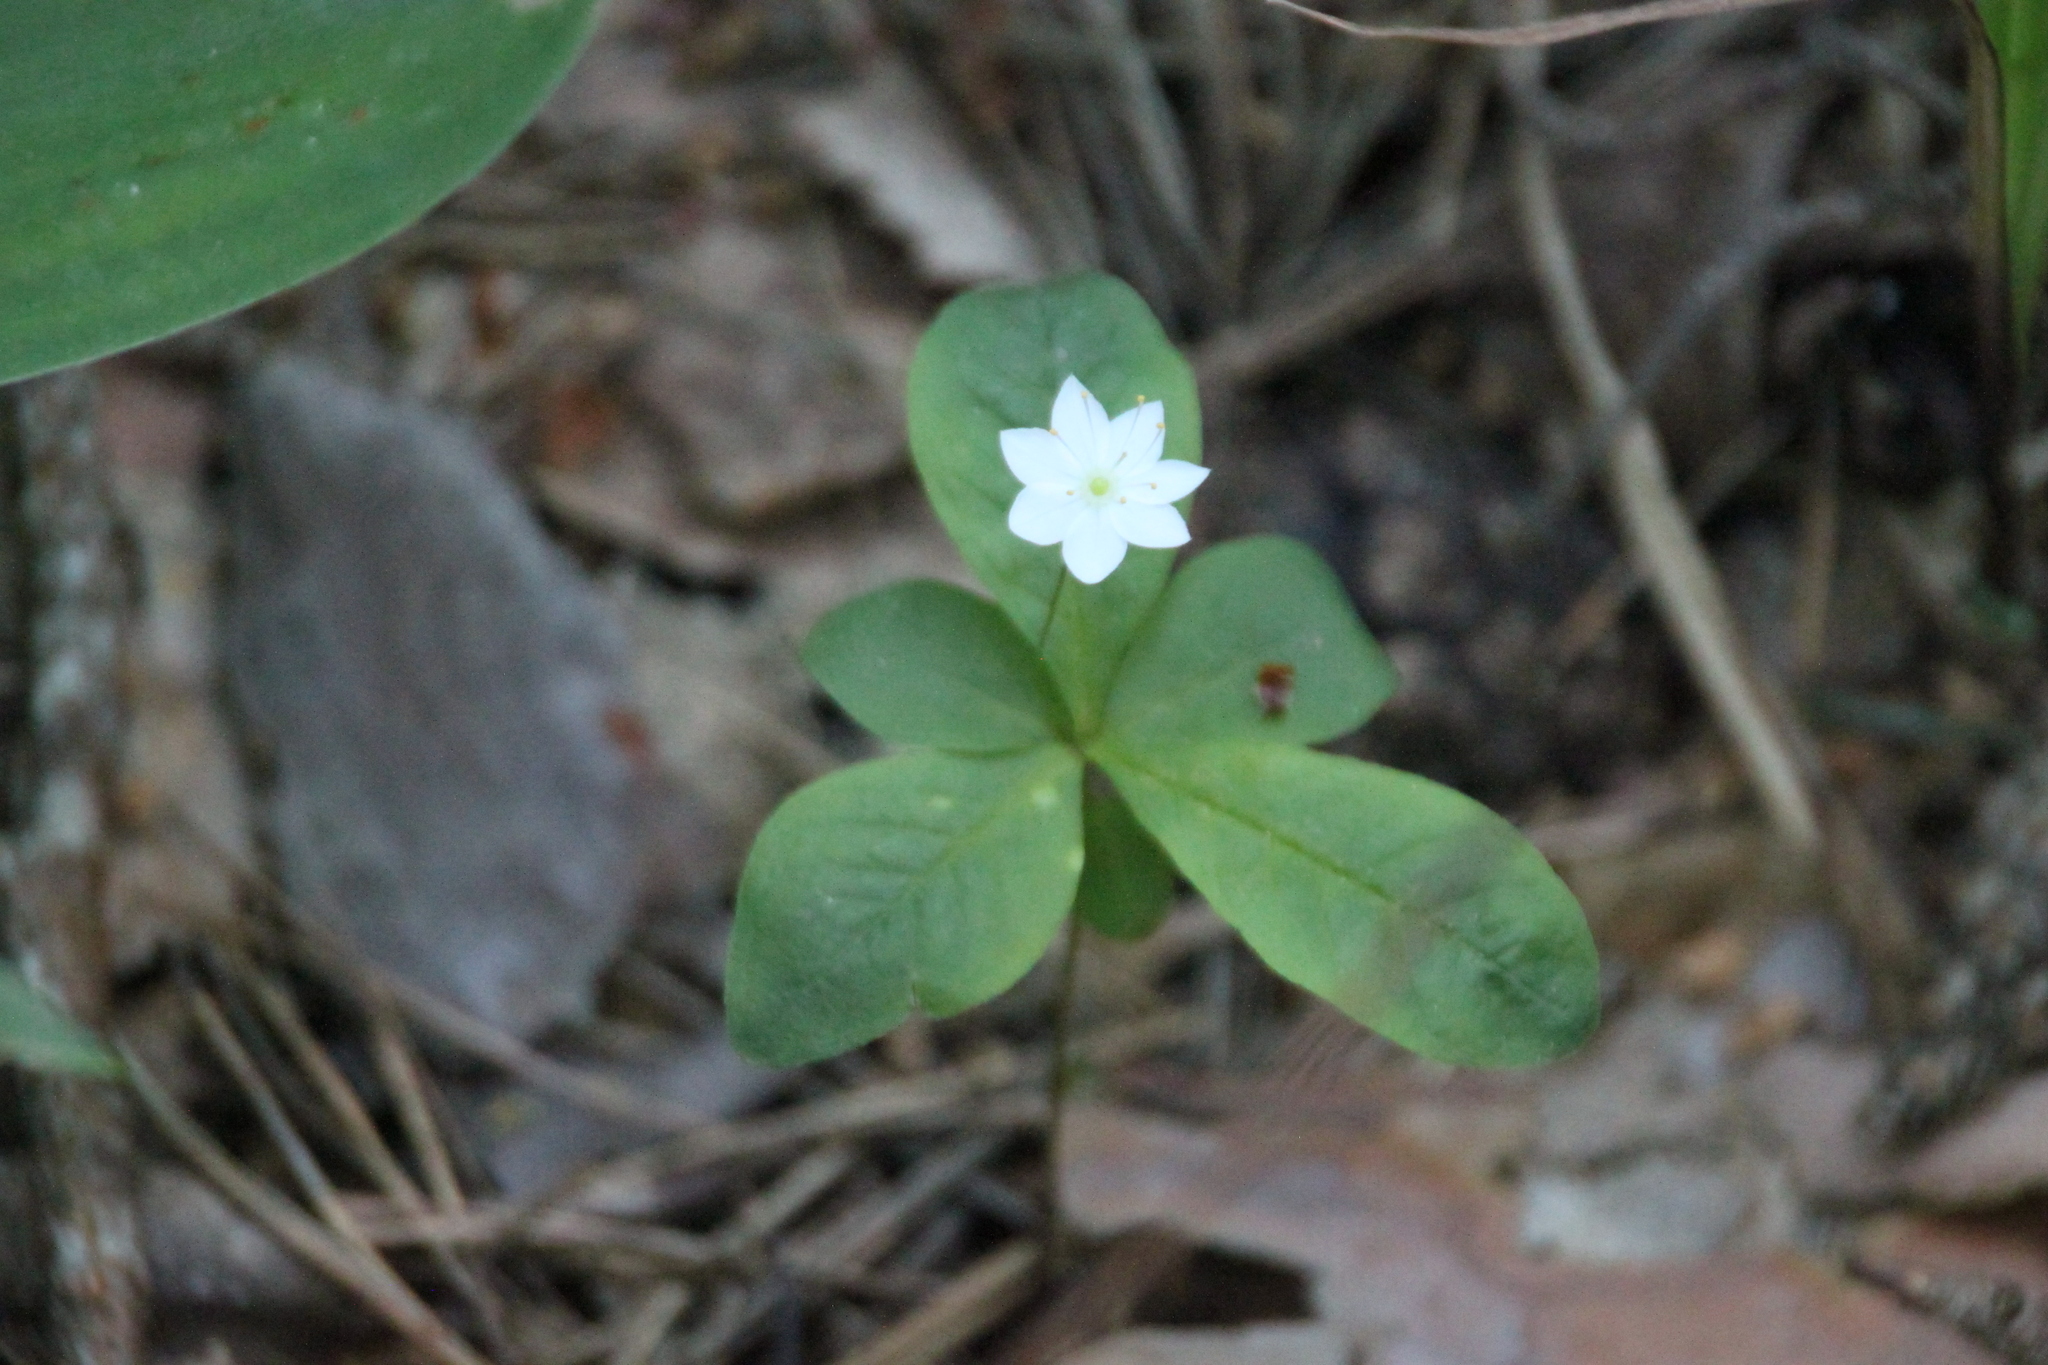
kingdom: Plantae
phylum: Tracheophyta
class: Magnoliopsida
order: Ericales
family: Primulaceae
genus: Lysimachia
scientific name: Lysimachia europaea
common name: Arctic starflower
